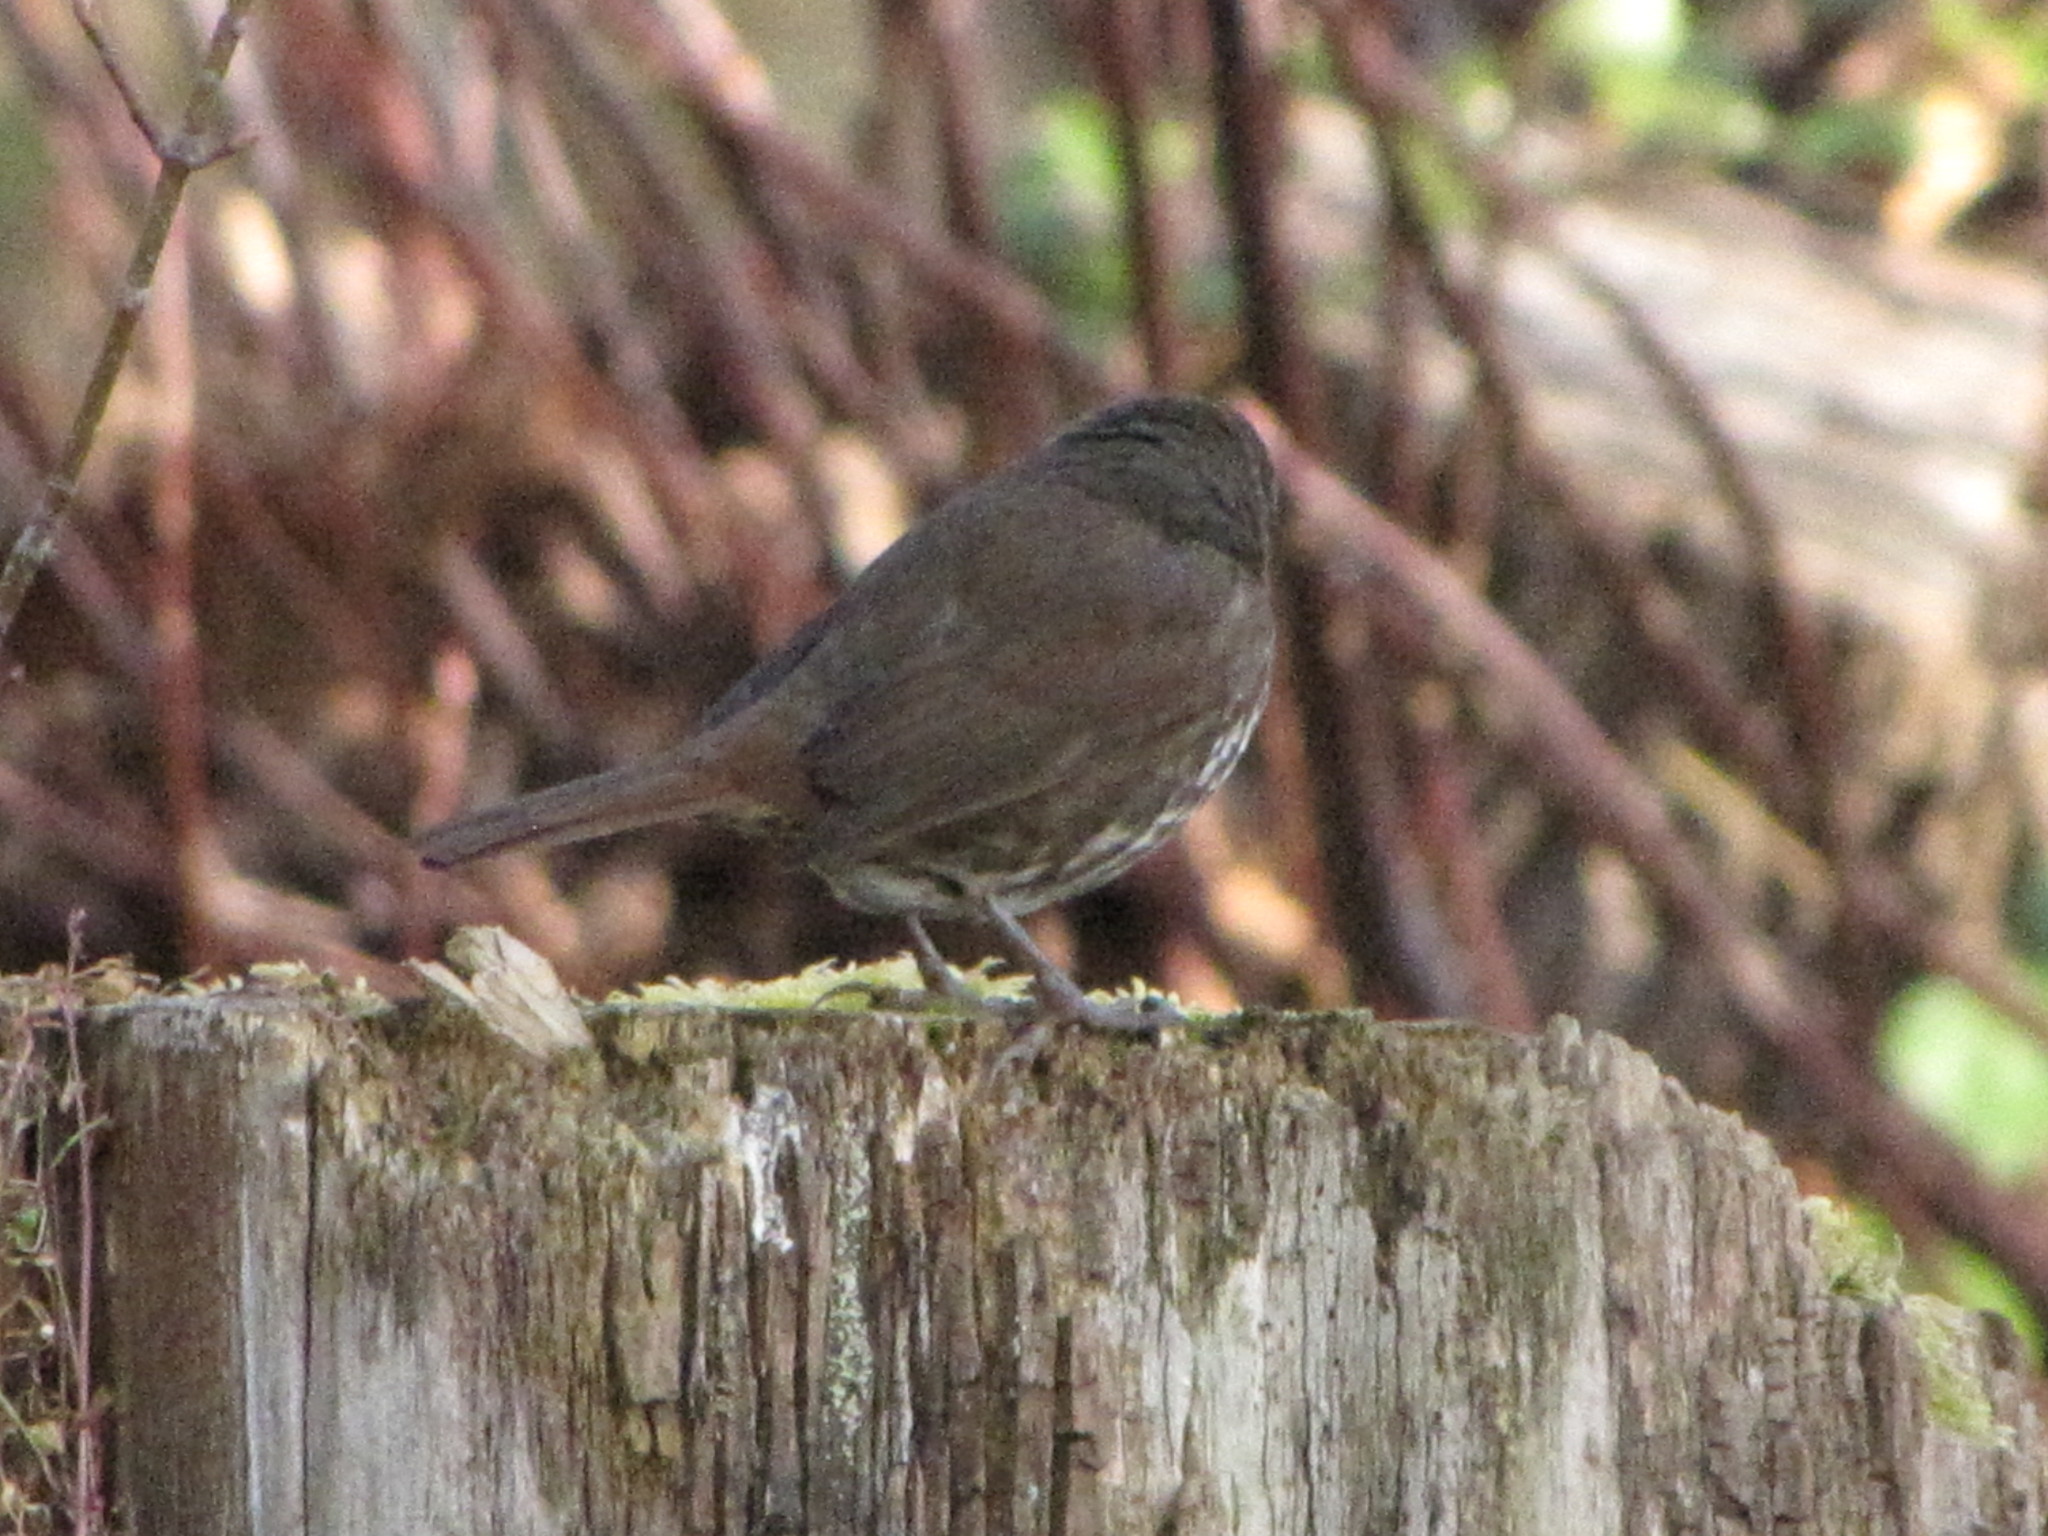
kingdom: Animalia
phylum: Chordata
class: Aves
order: Passeriformes
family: Passerellidae
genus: Passerella
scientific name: Passerella iliaca
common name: Fox sparrow
